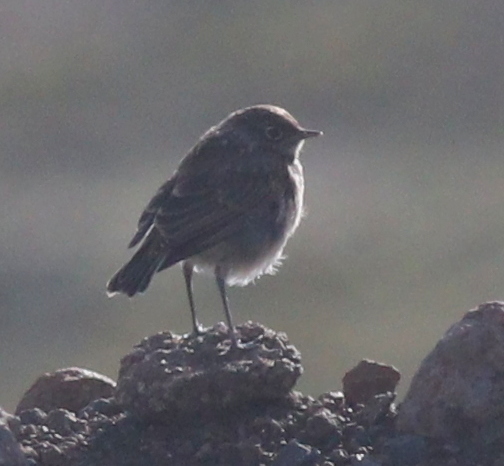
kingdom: Animalia
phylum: Chordata
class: Aves
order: Passeriformes
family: Muscicapidae
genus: Emarginata
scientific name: Emarginata sinuata
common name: Sickle-winged chat
